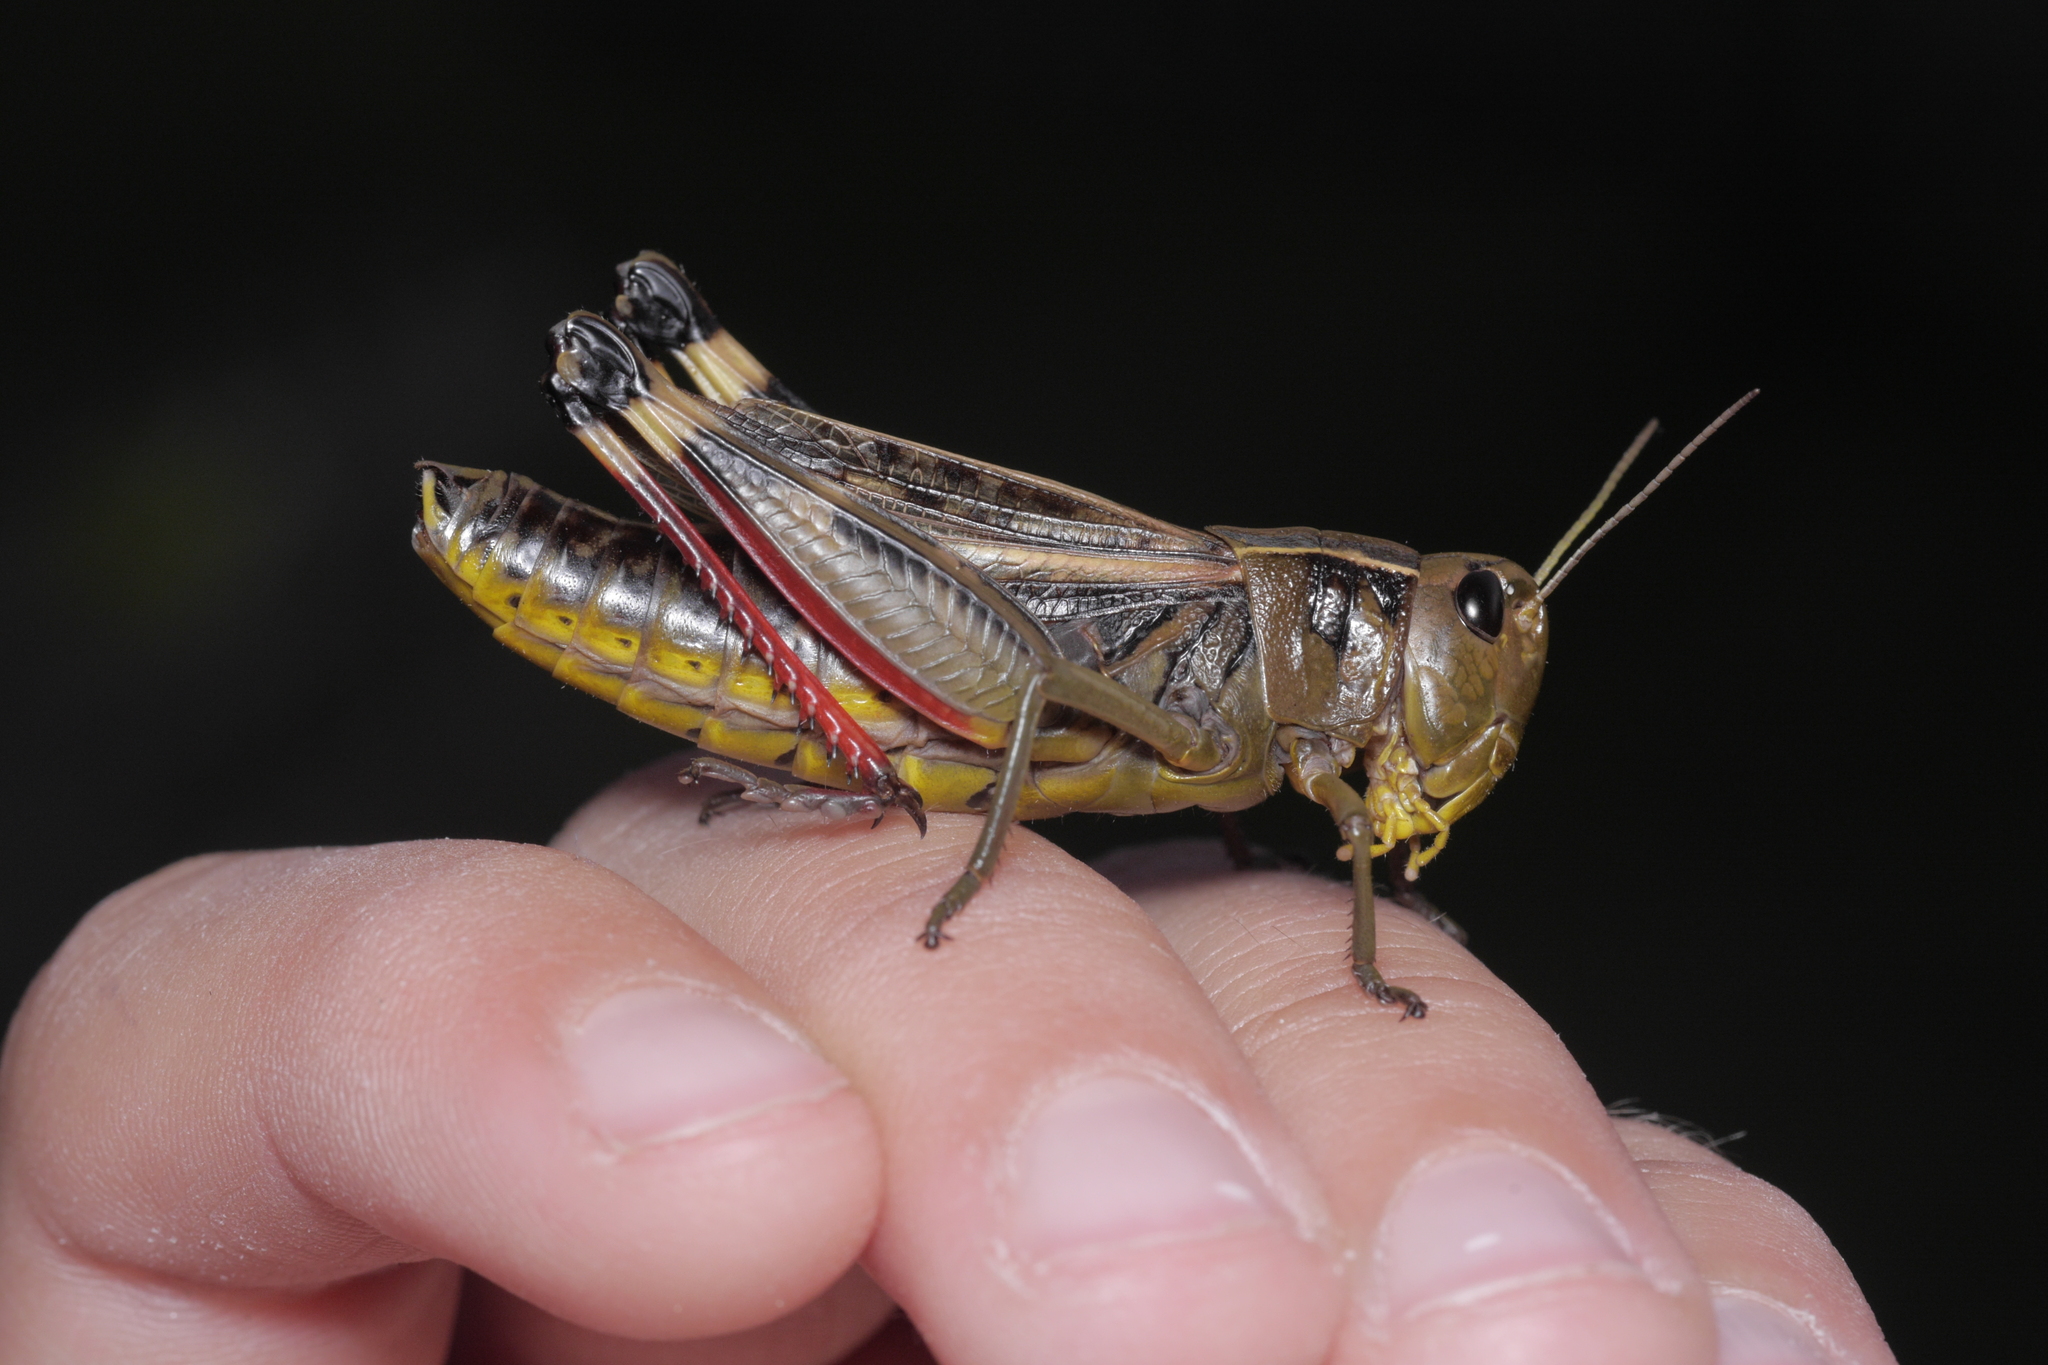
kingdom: Animalia
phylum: Arthropoda
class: Insecta
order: Orthoptera
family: Acrididae
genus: Arcyptera
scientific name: Arcyptera fusca
